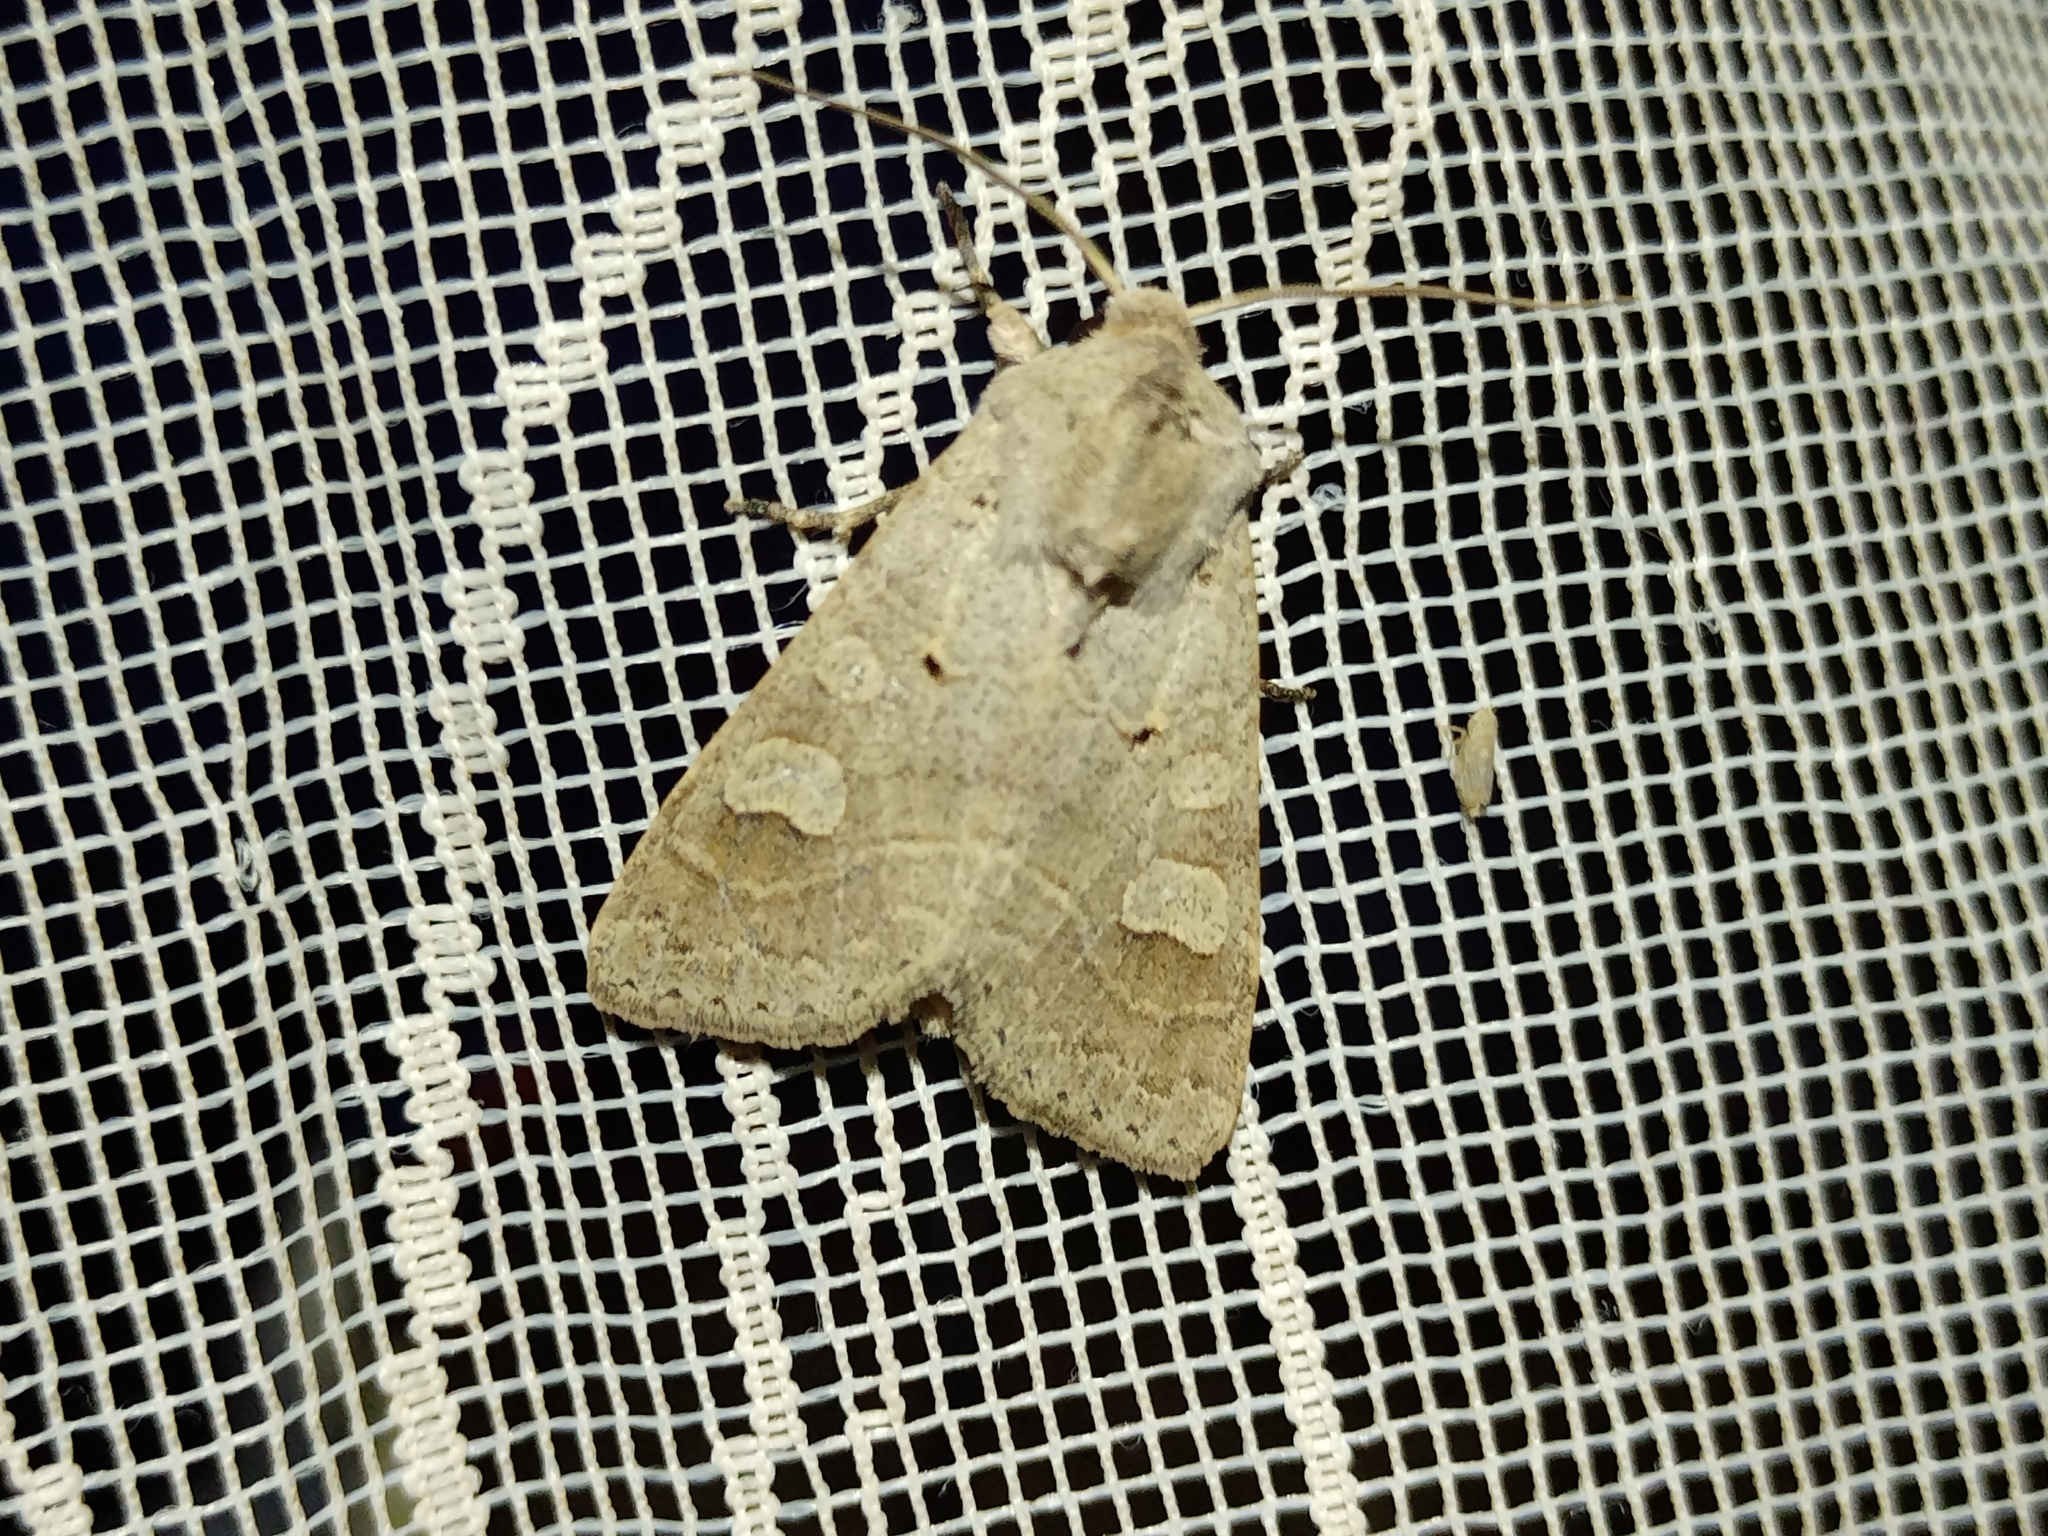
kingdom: Animalia
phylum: Arthropoda
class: Insecta
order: Lepidoptera
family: Noctuidae
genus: Ammoconia
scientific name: Ammoconia caecimacula
